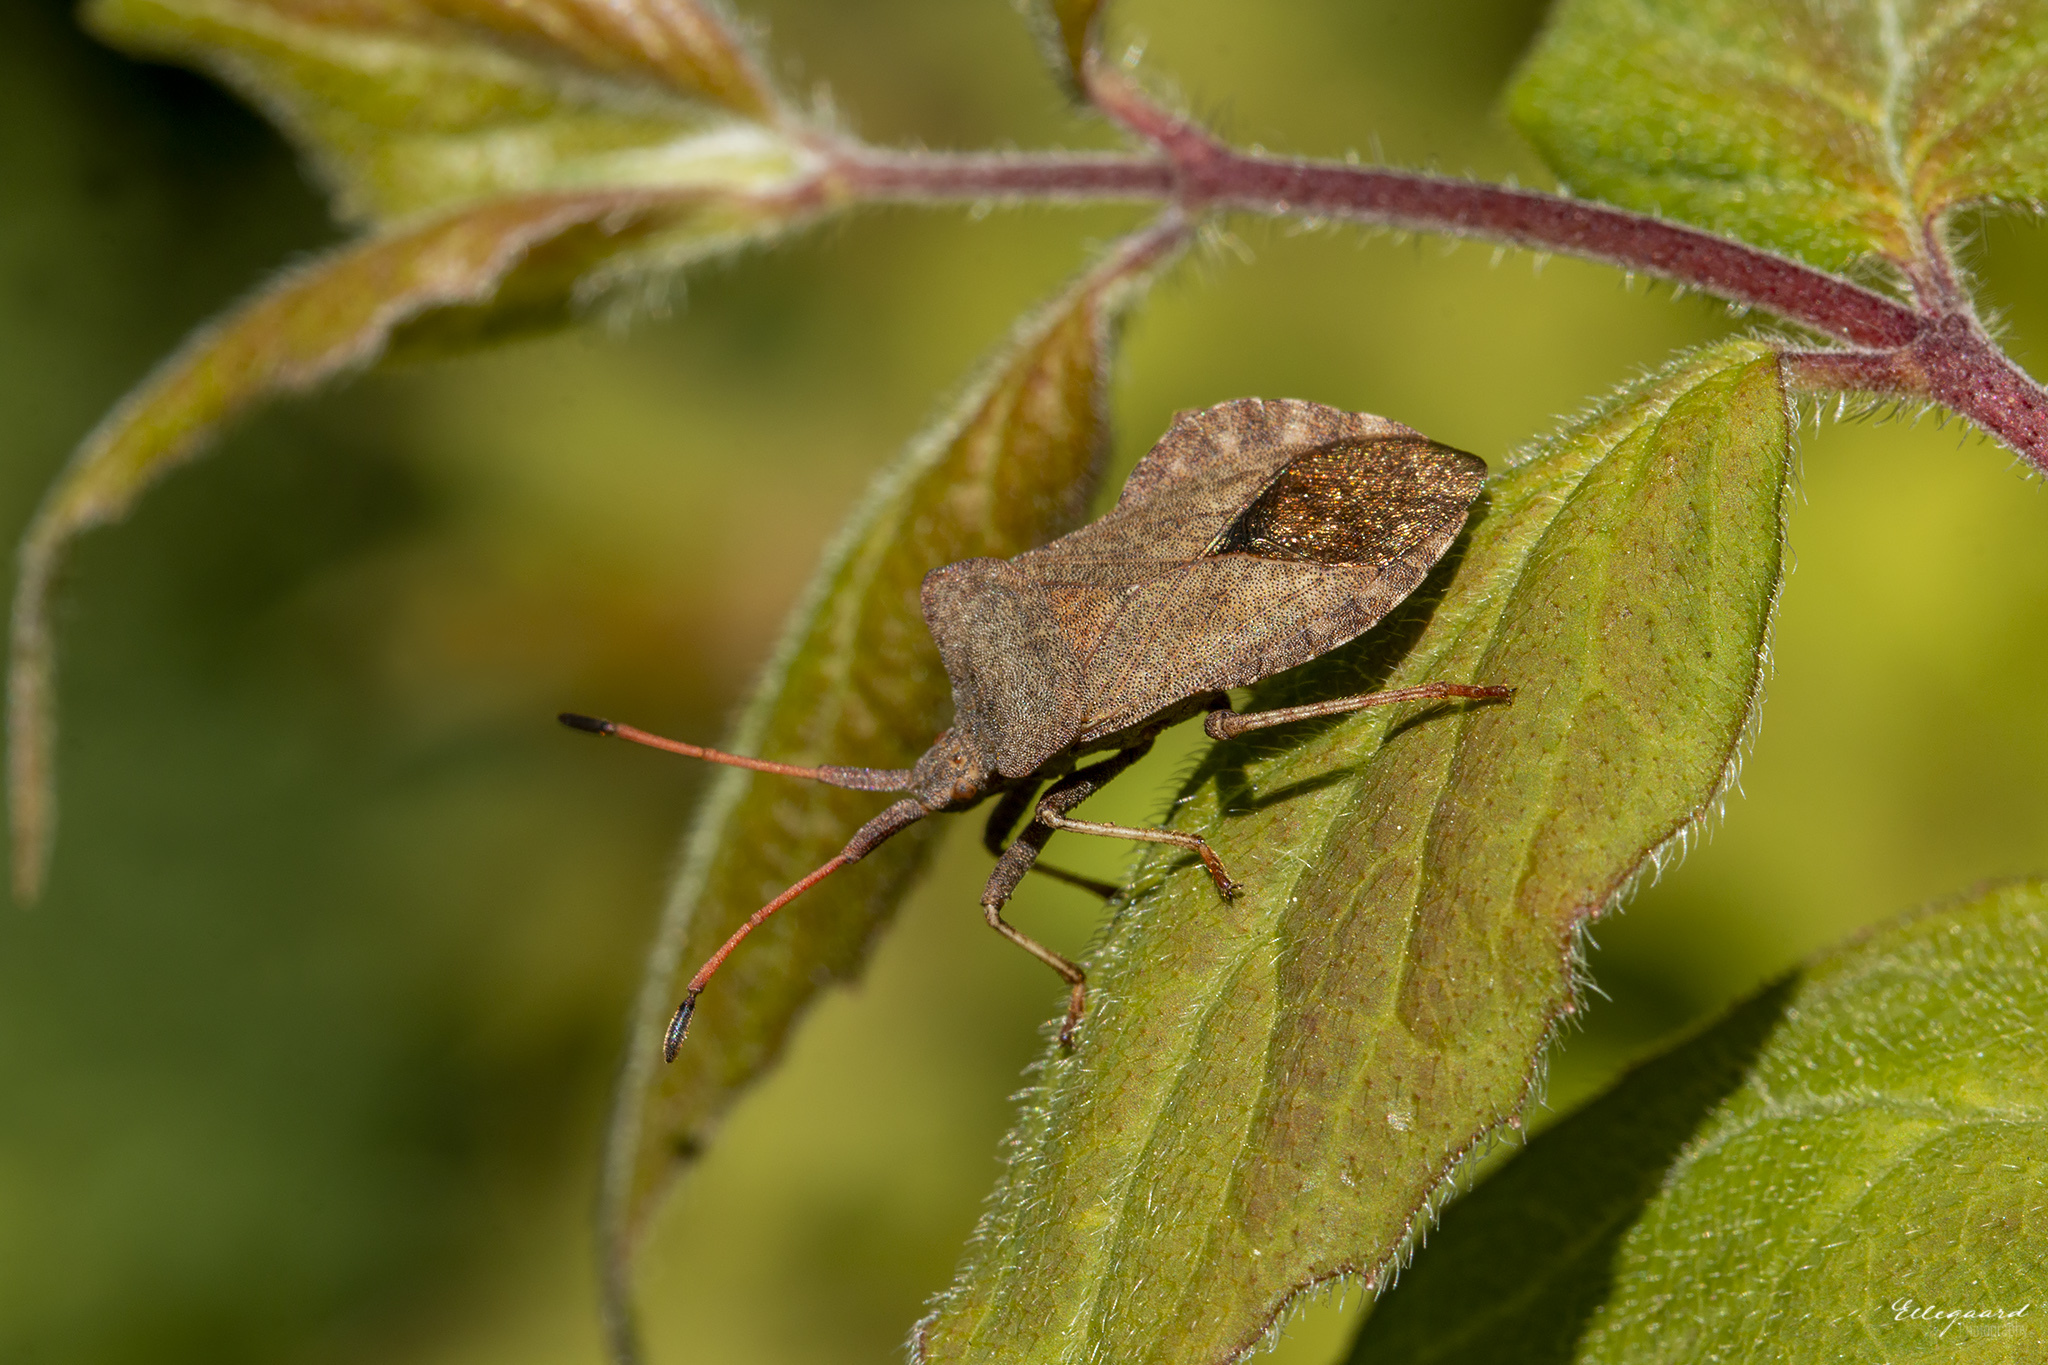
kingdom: Animalia
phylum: Arthropoda
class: Insecta
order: Hemiptera
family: Coreidae
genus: Coreus
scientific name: Coreus marginatus
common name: Dock bug
